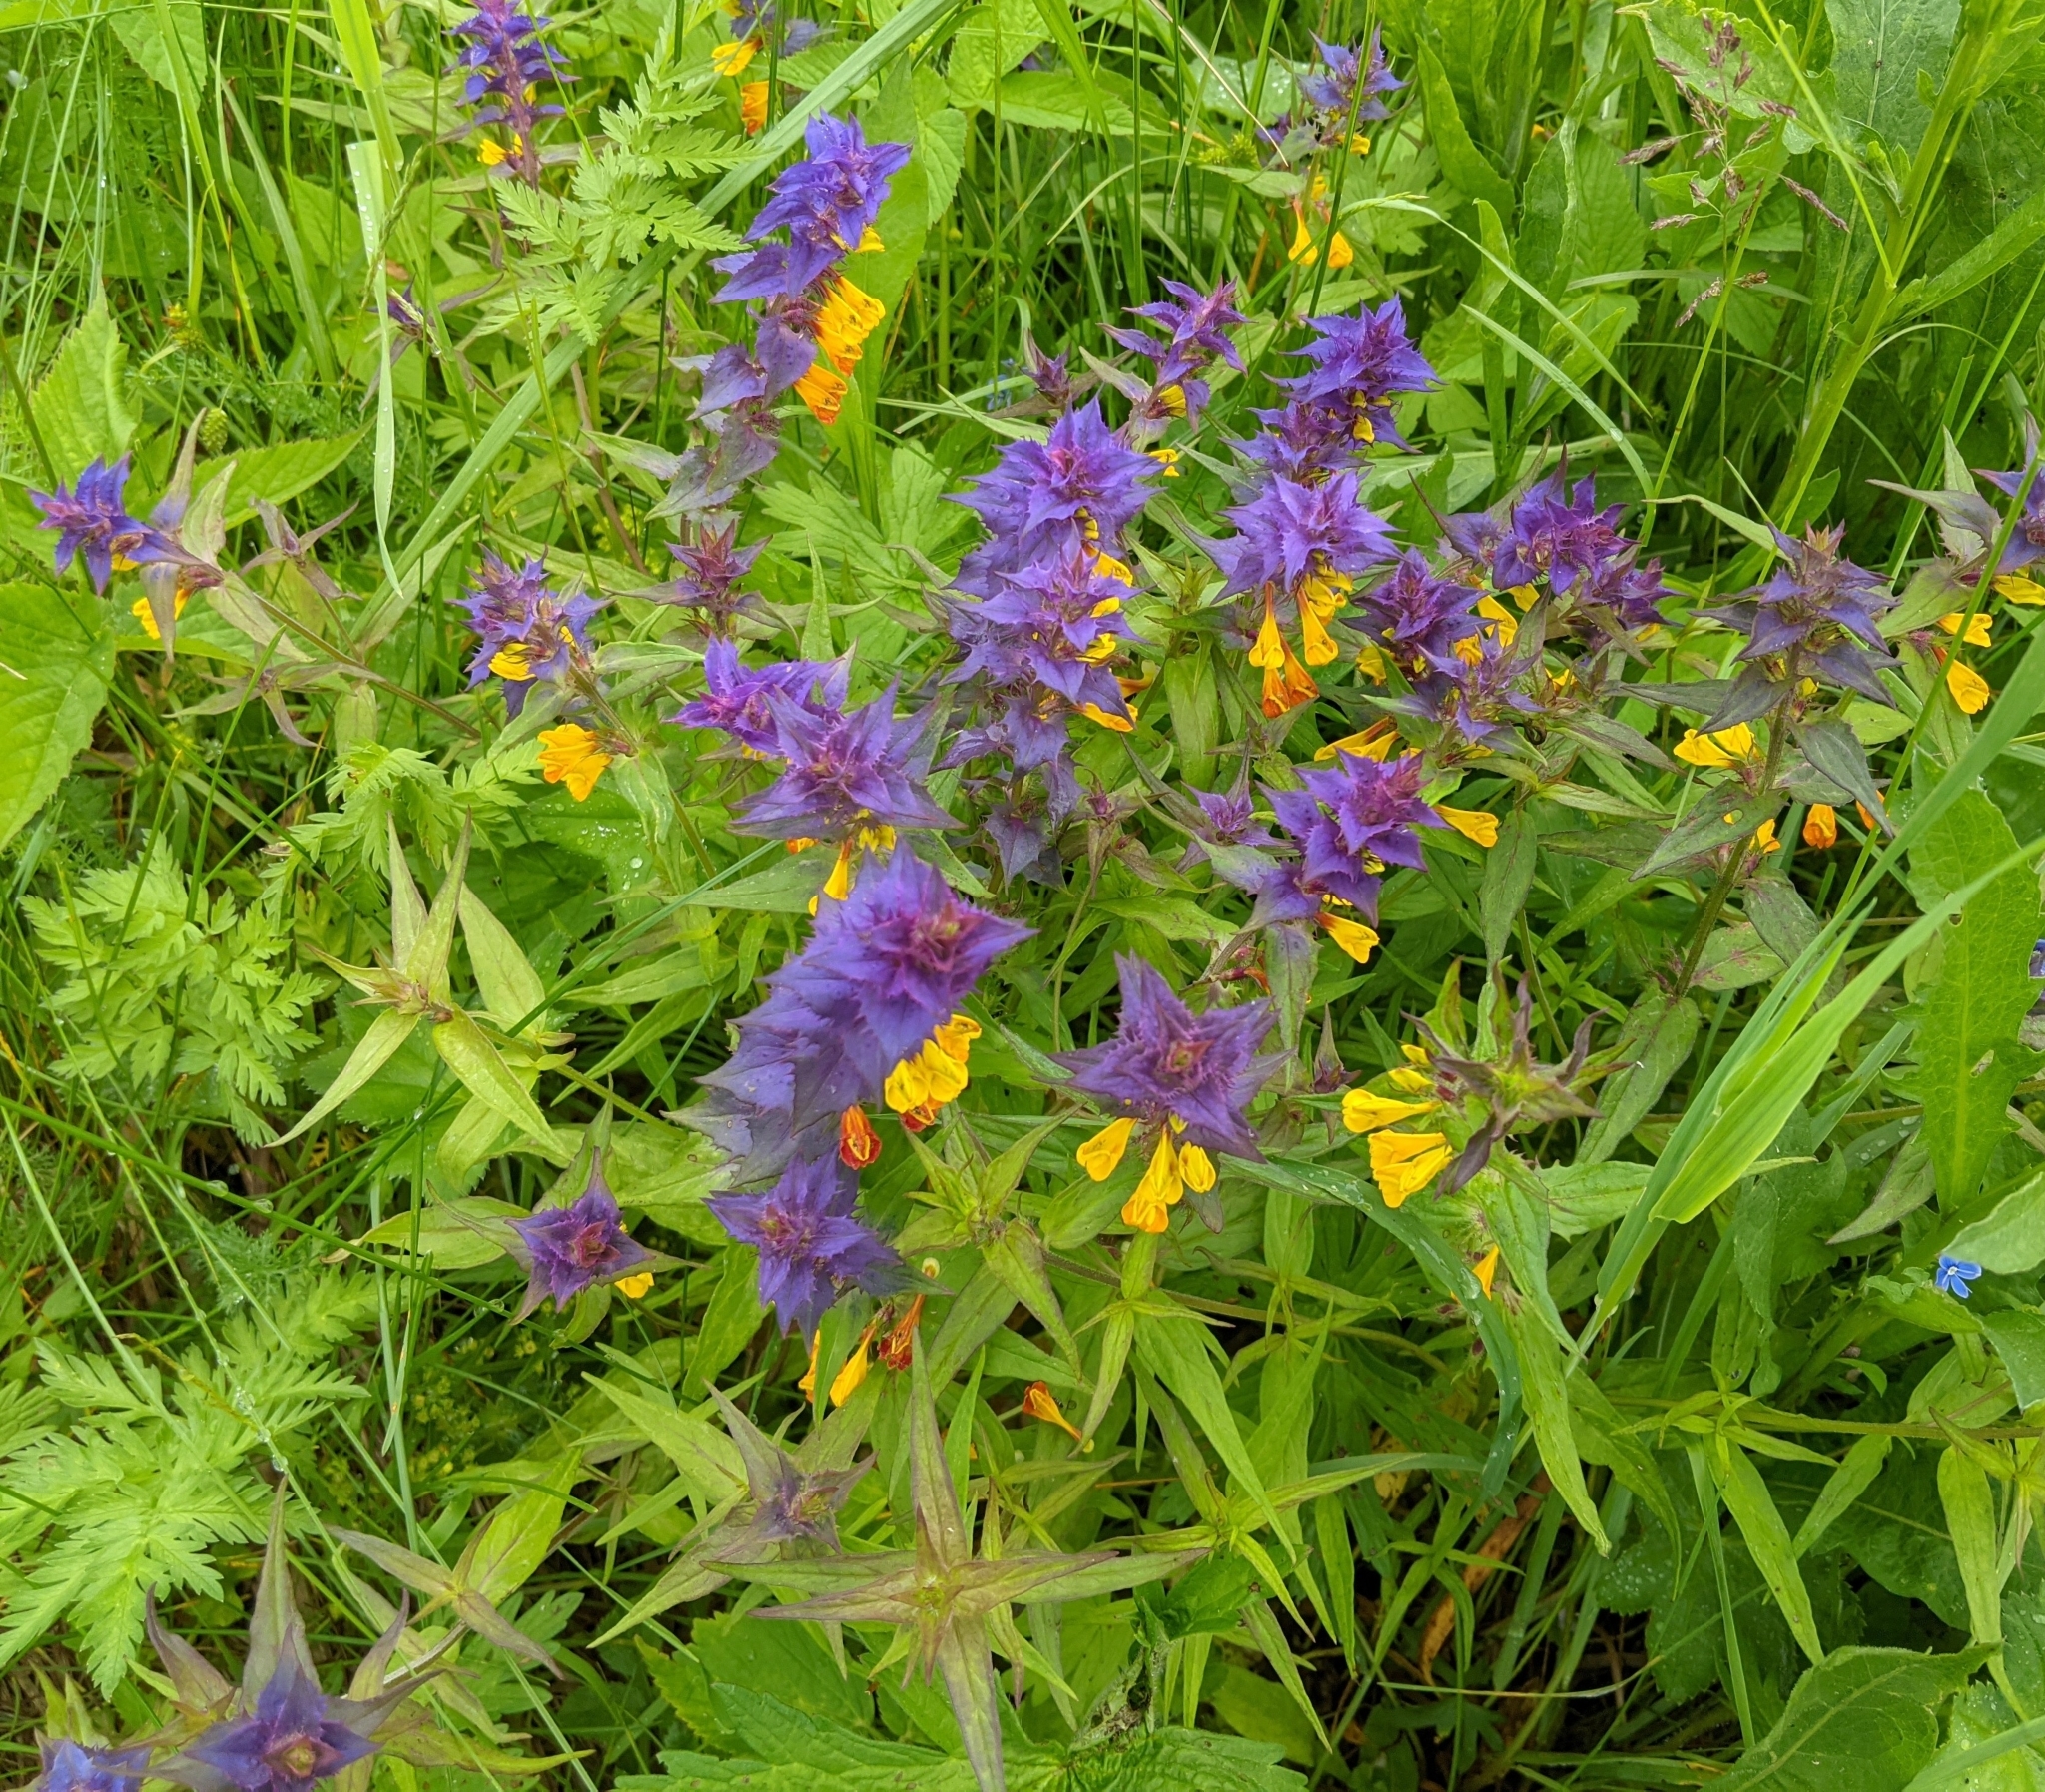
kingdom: Plantae
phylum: Tracheophyta
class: Magnoliopsida
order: Lamiales
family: Orobanchaceae
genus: Melampyrum
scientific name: Melampyrum nemorosum
